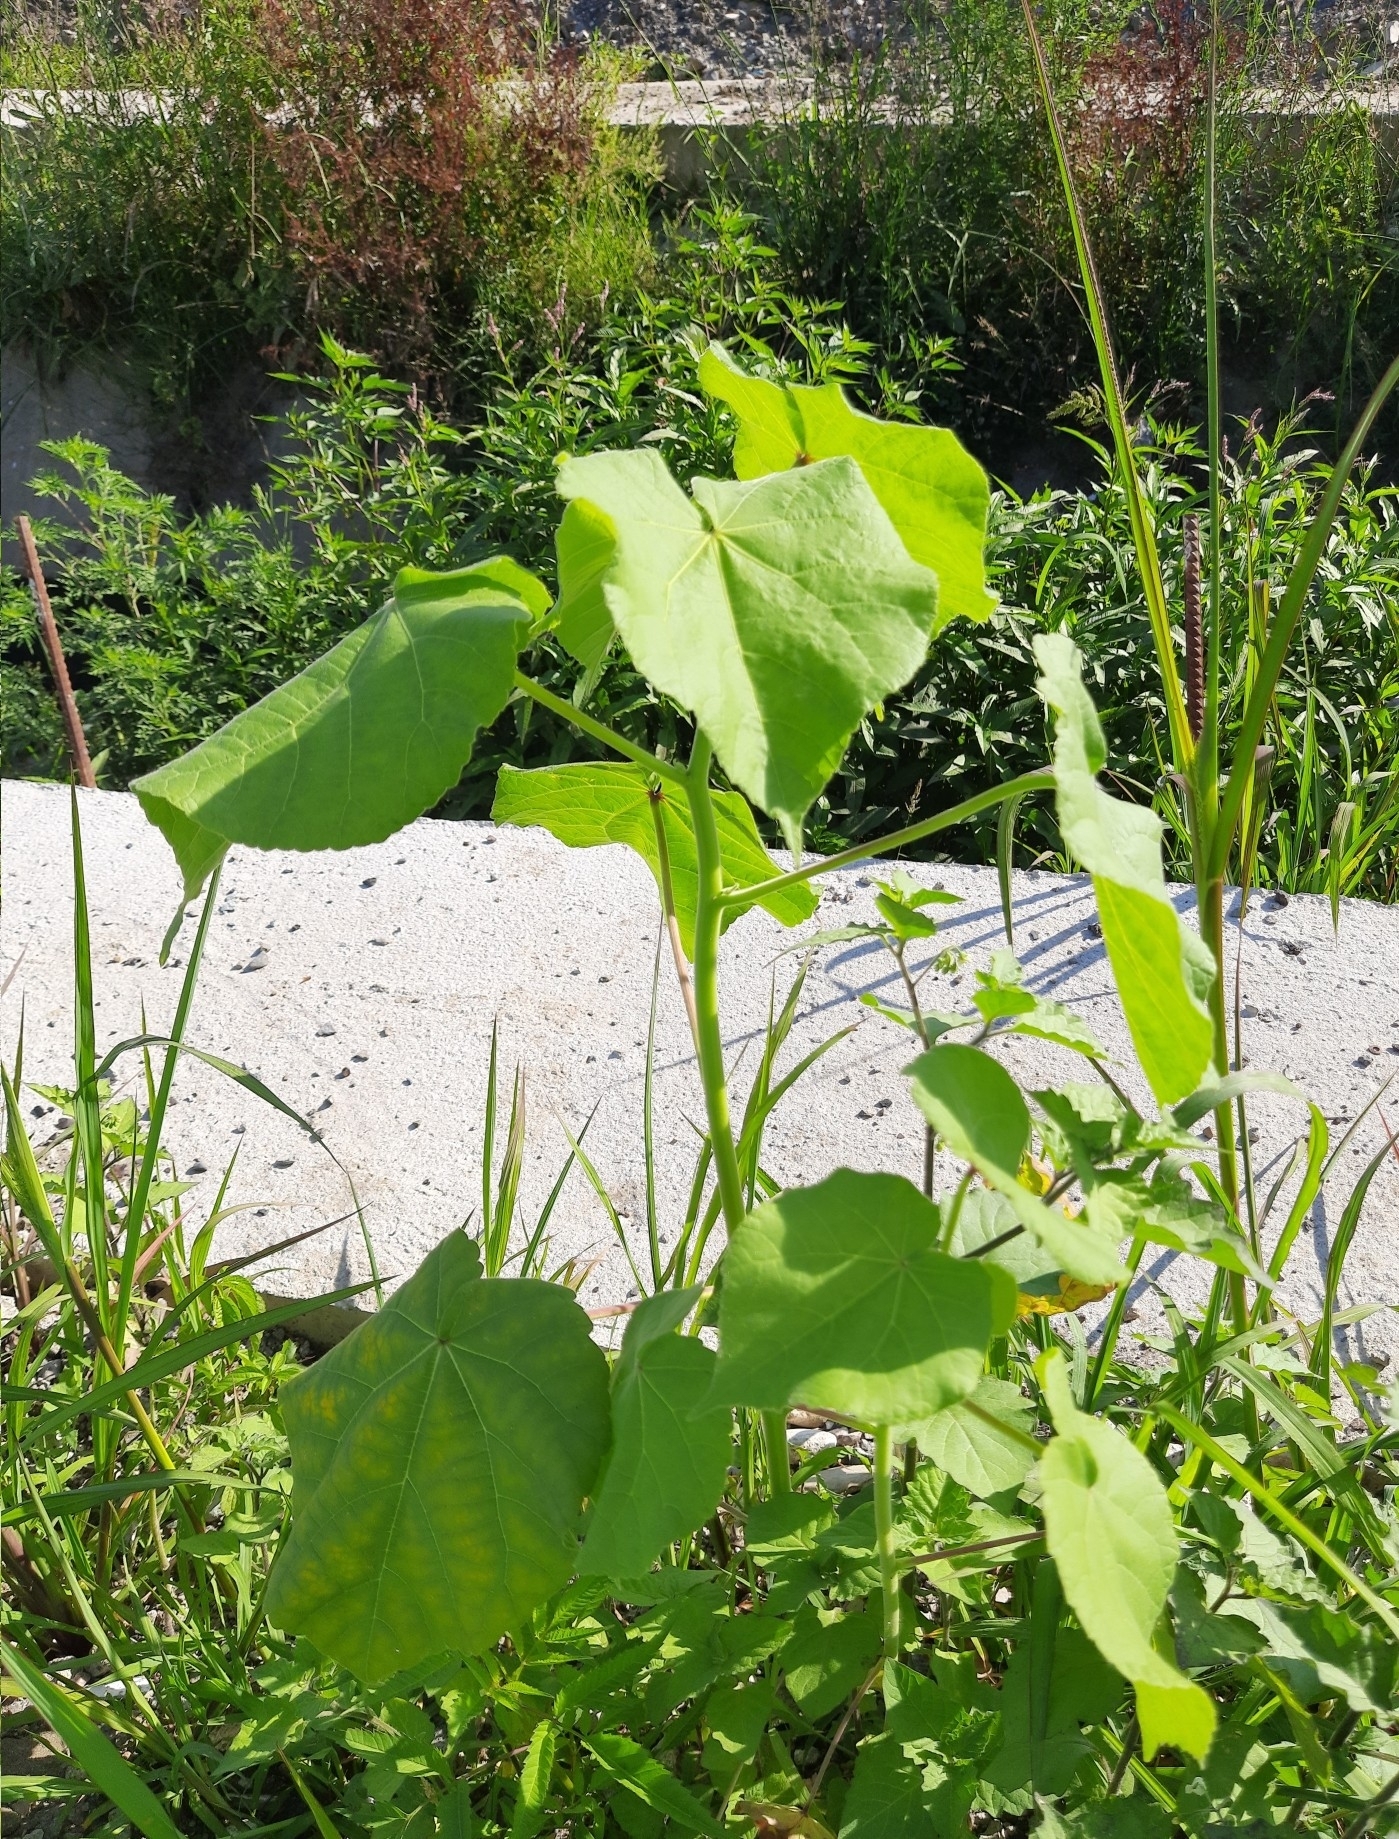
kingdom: Plantae
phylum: Tracheophyta
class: Magnoliopsida
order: Malvales
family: Malvaceae
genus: Abutilon
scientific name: Abutilon theophrasti
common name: Velvetleaf
